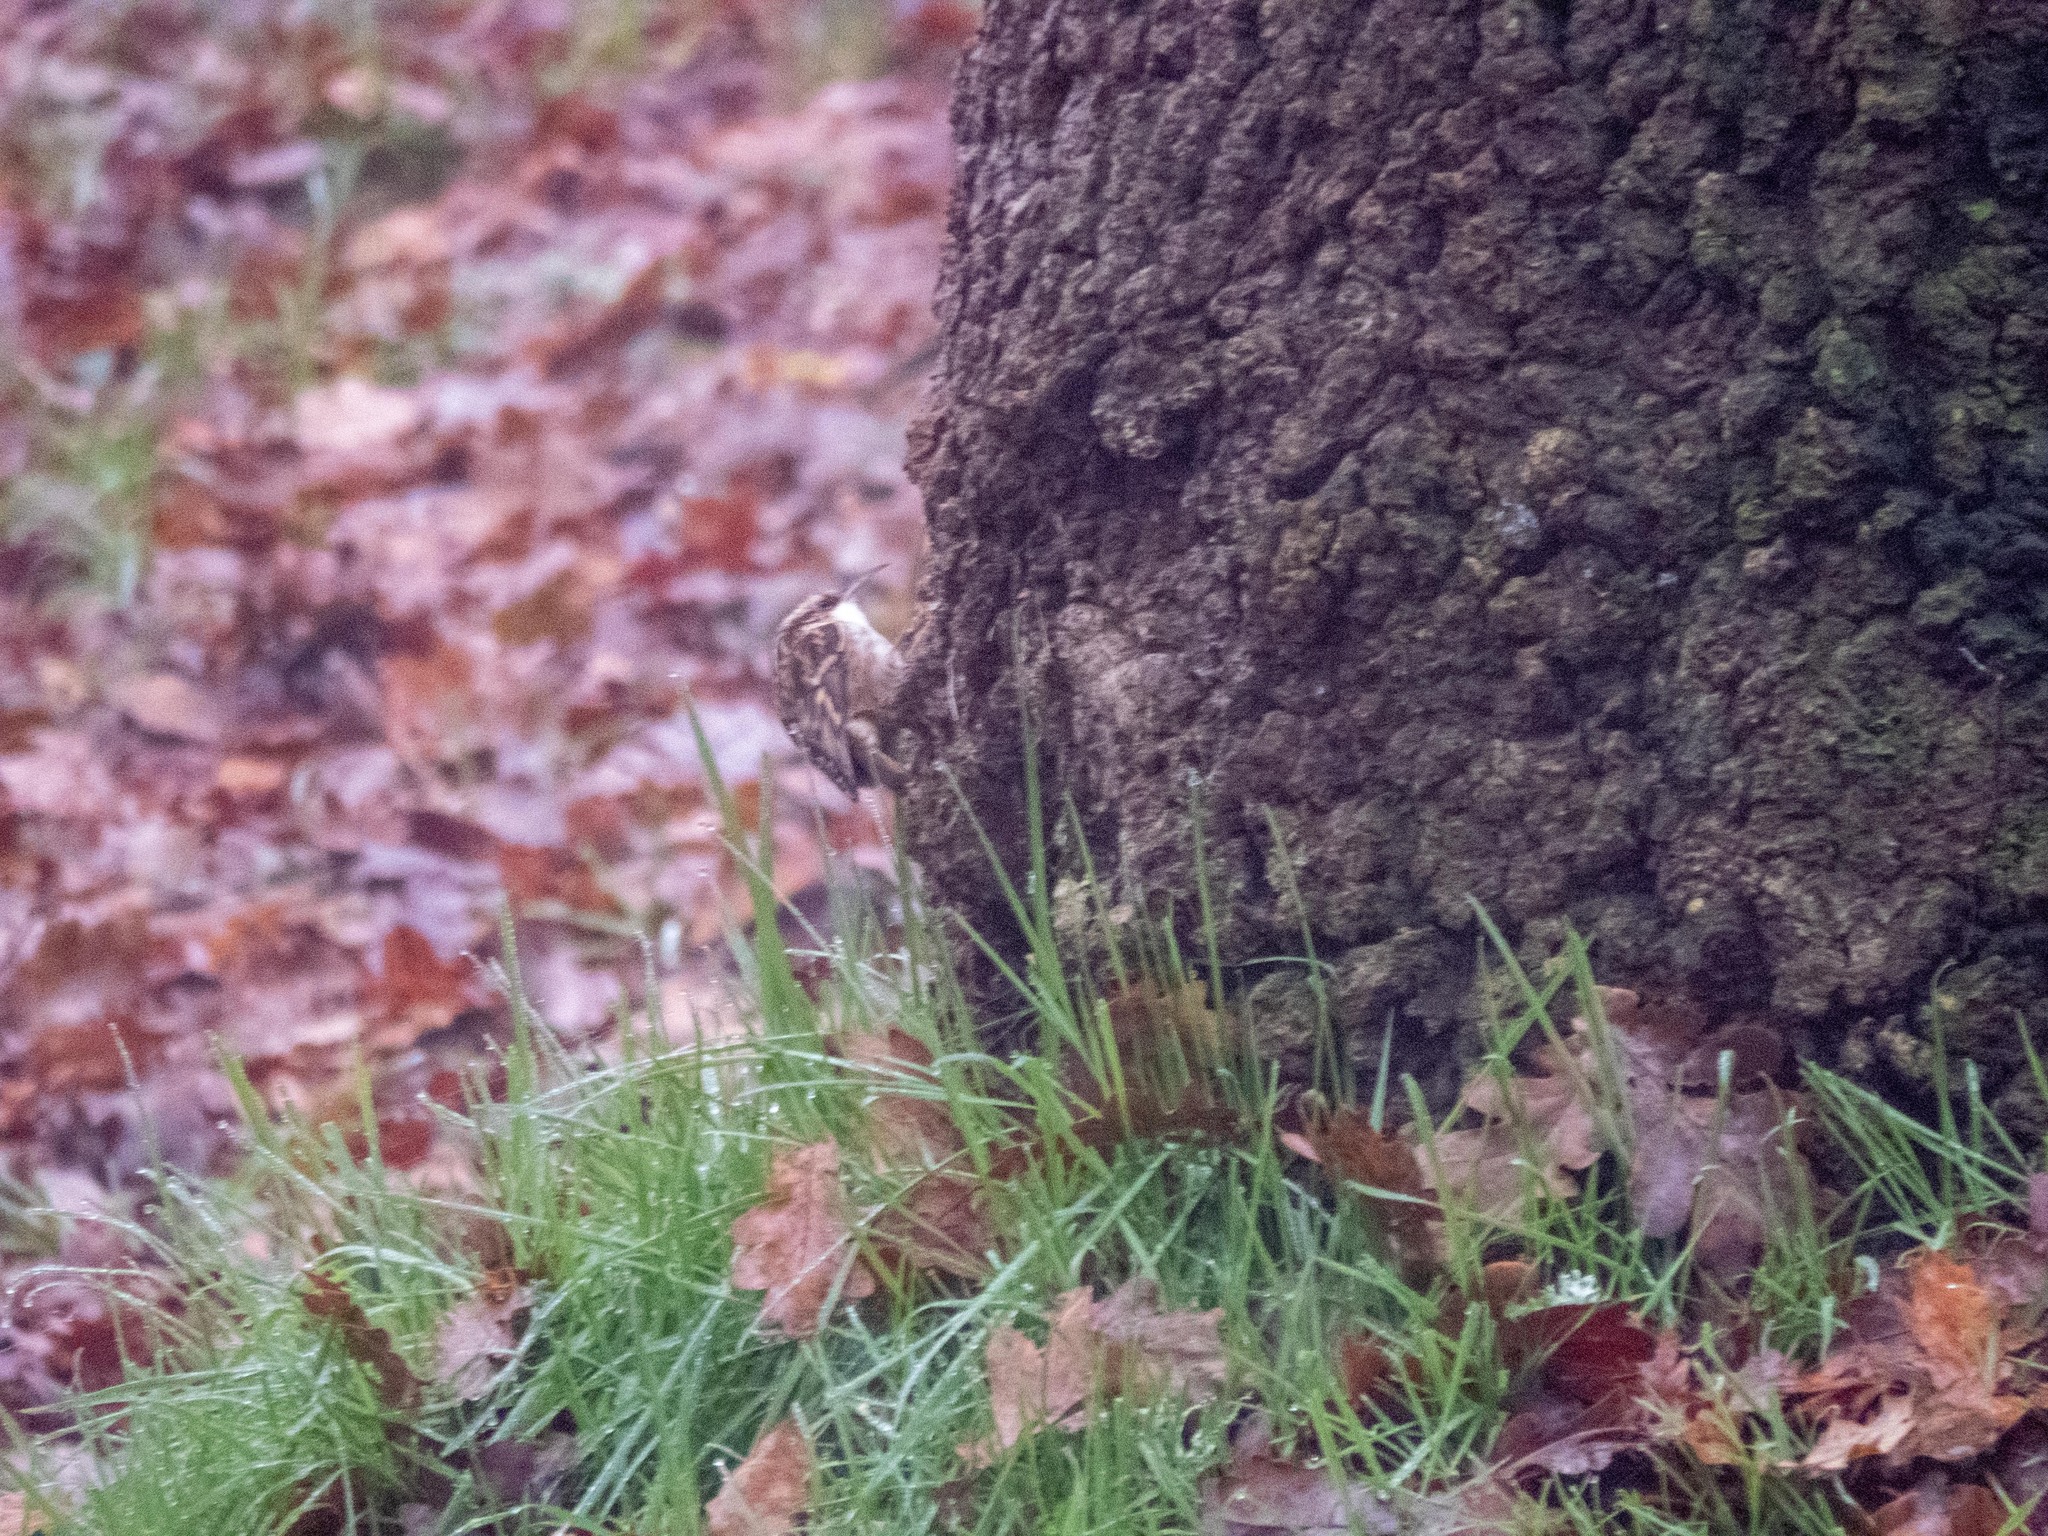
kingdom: Animalia
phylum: Chordata
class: Aves
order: Passeriformes
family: Certhiidae
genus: Certhia
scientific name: Certhia brachydactyla
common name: Short-toed treecreeper
